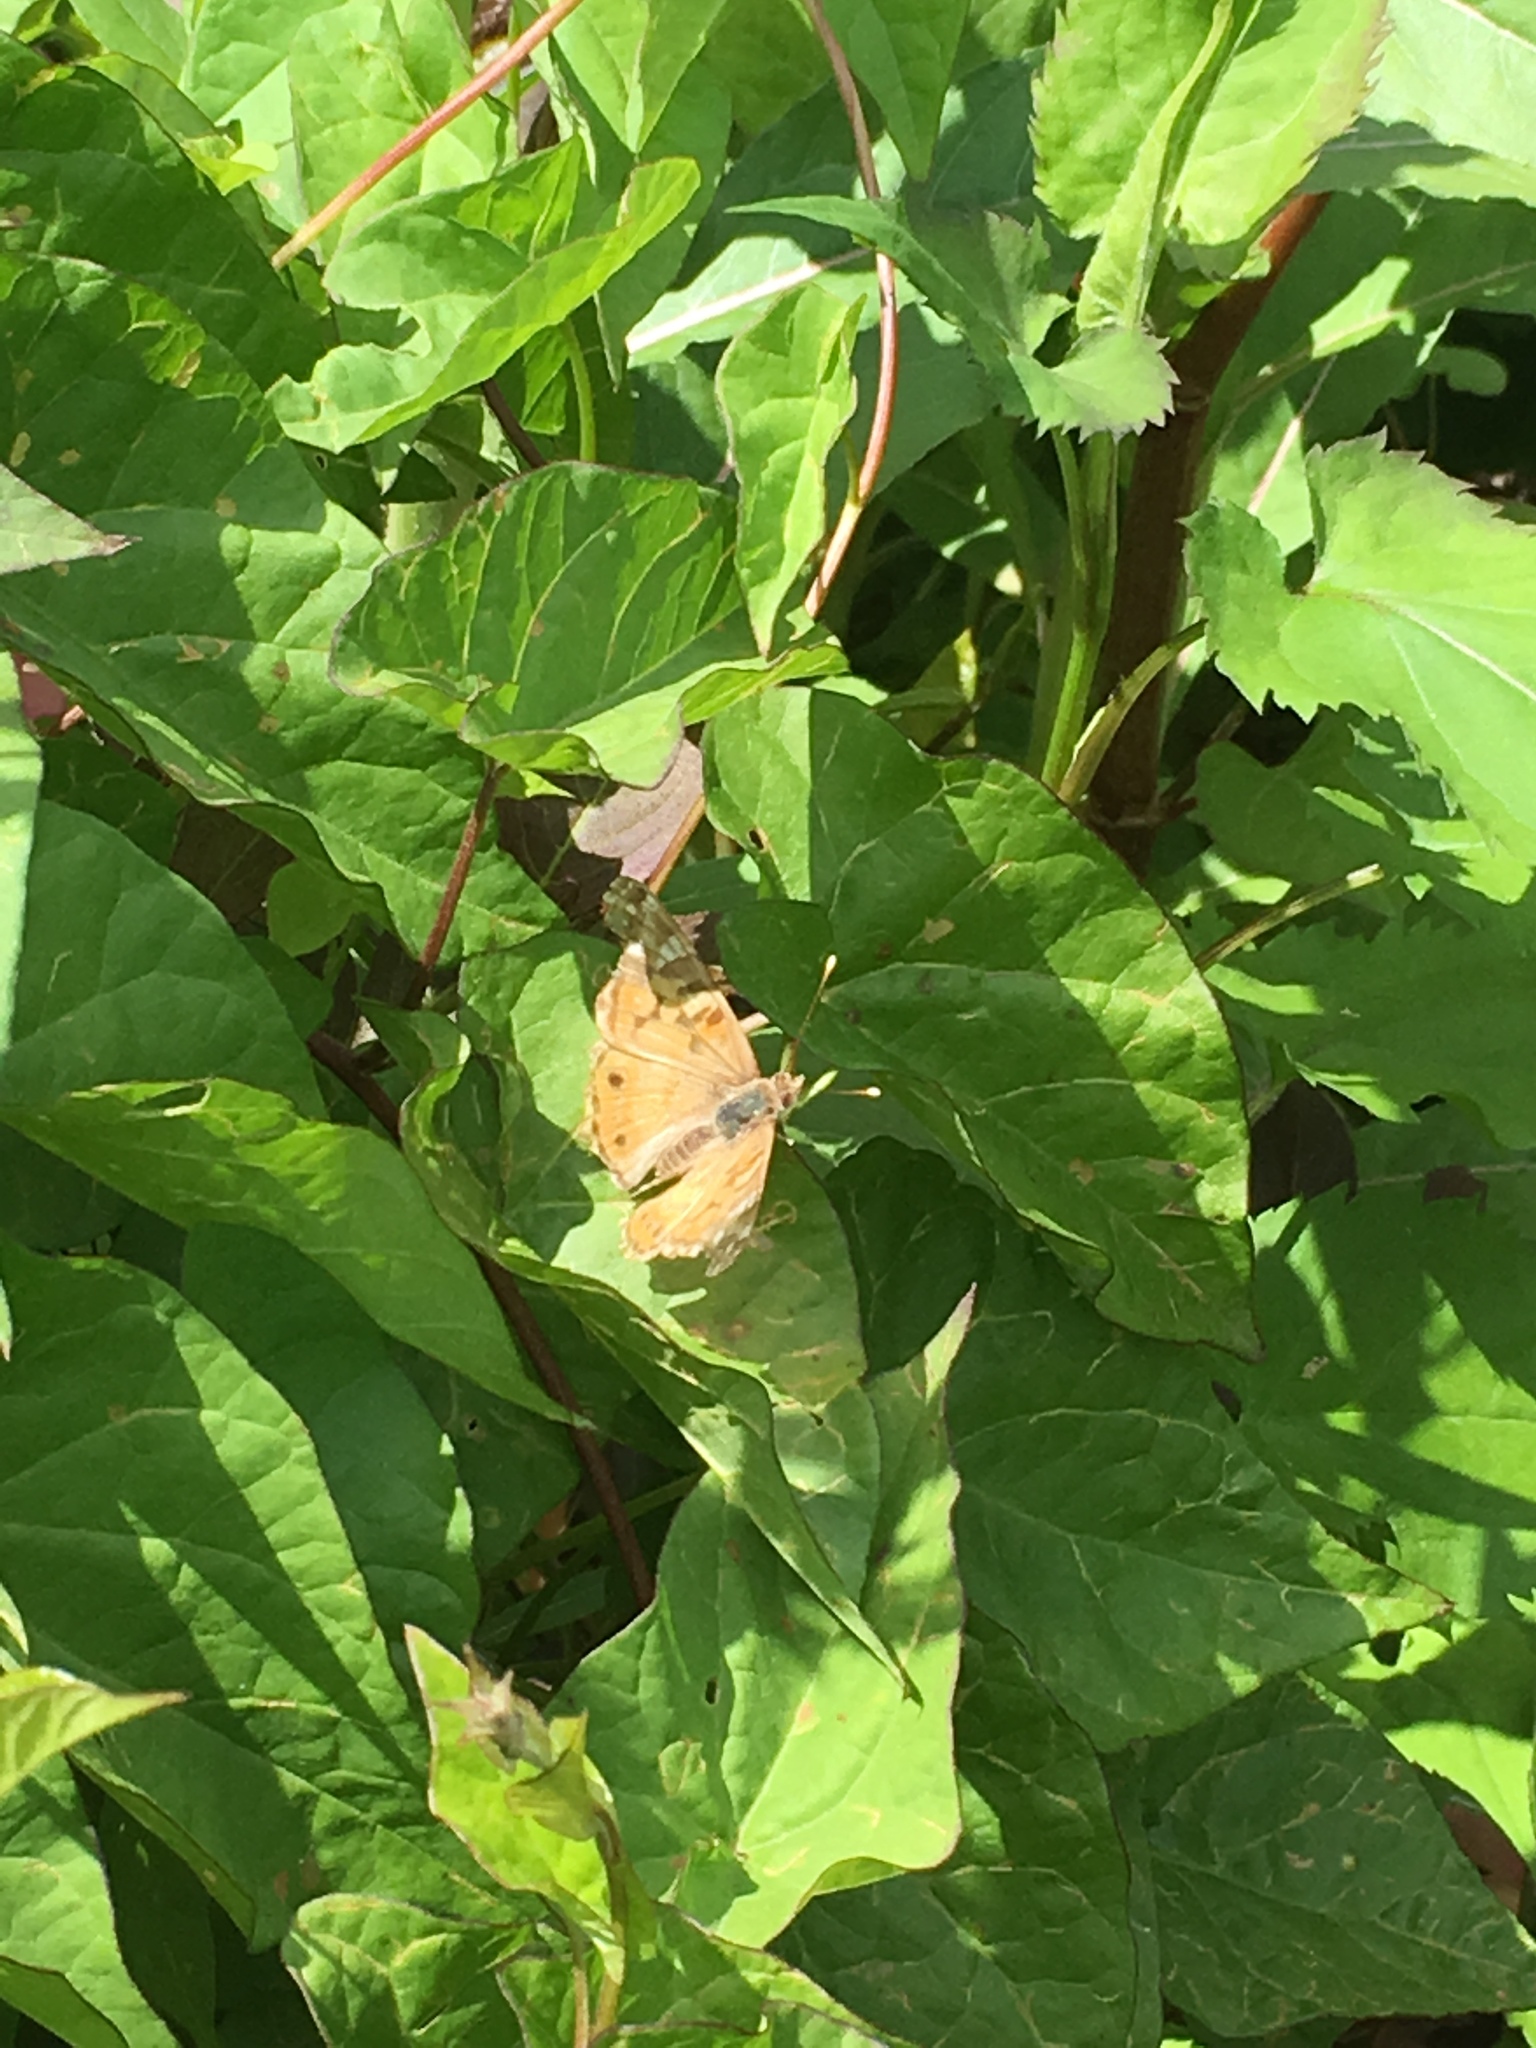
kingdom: Animalia
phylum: Arthropoda
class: Insecta
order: Lepidoptera
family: Nymphalidae
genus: Vanessa
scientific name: Vanessa virginiensis
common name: American lady
